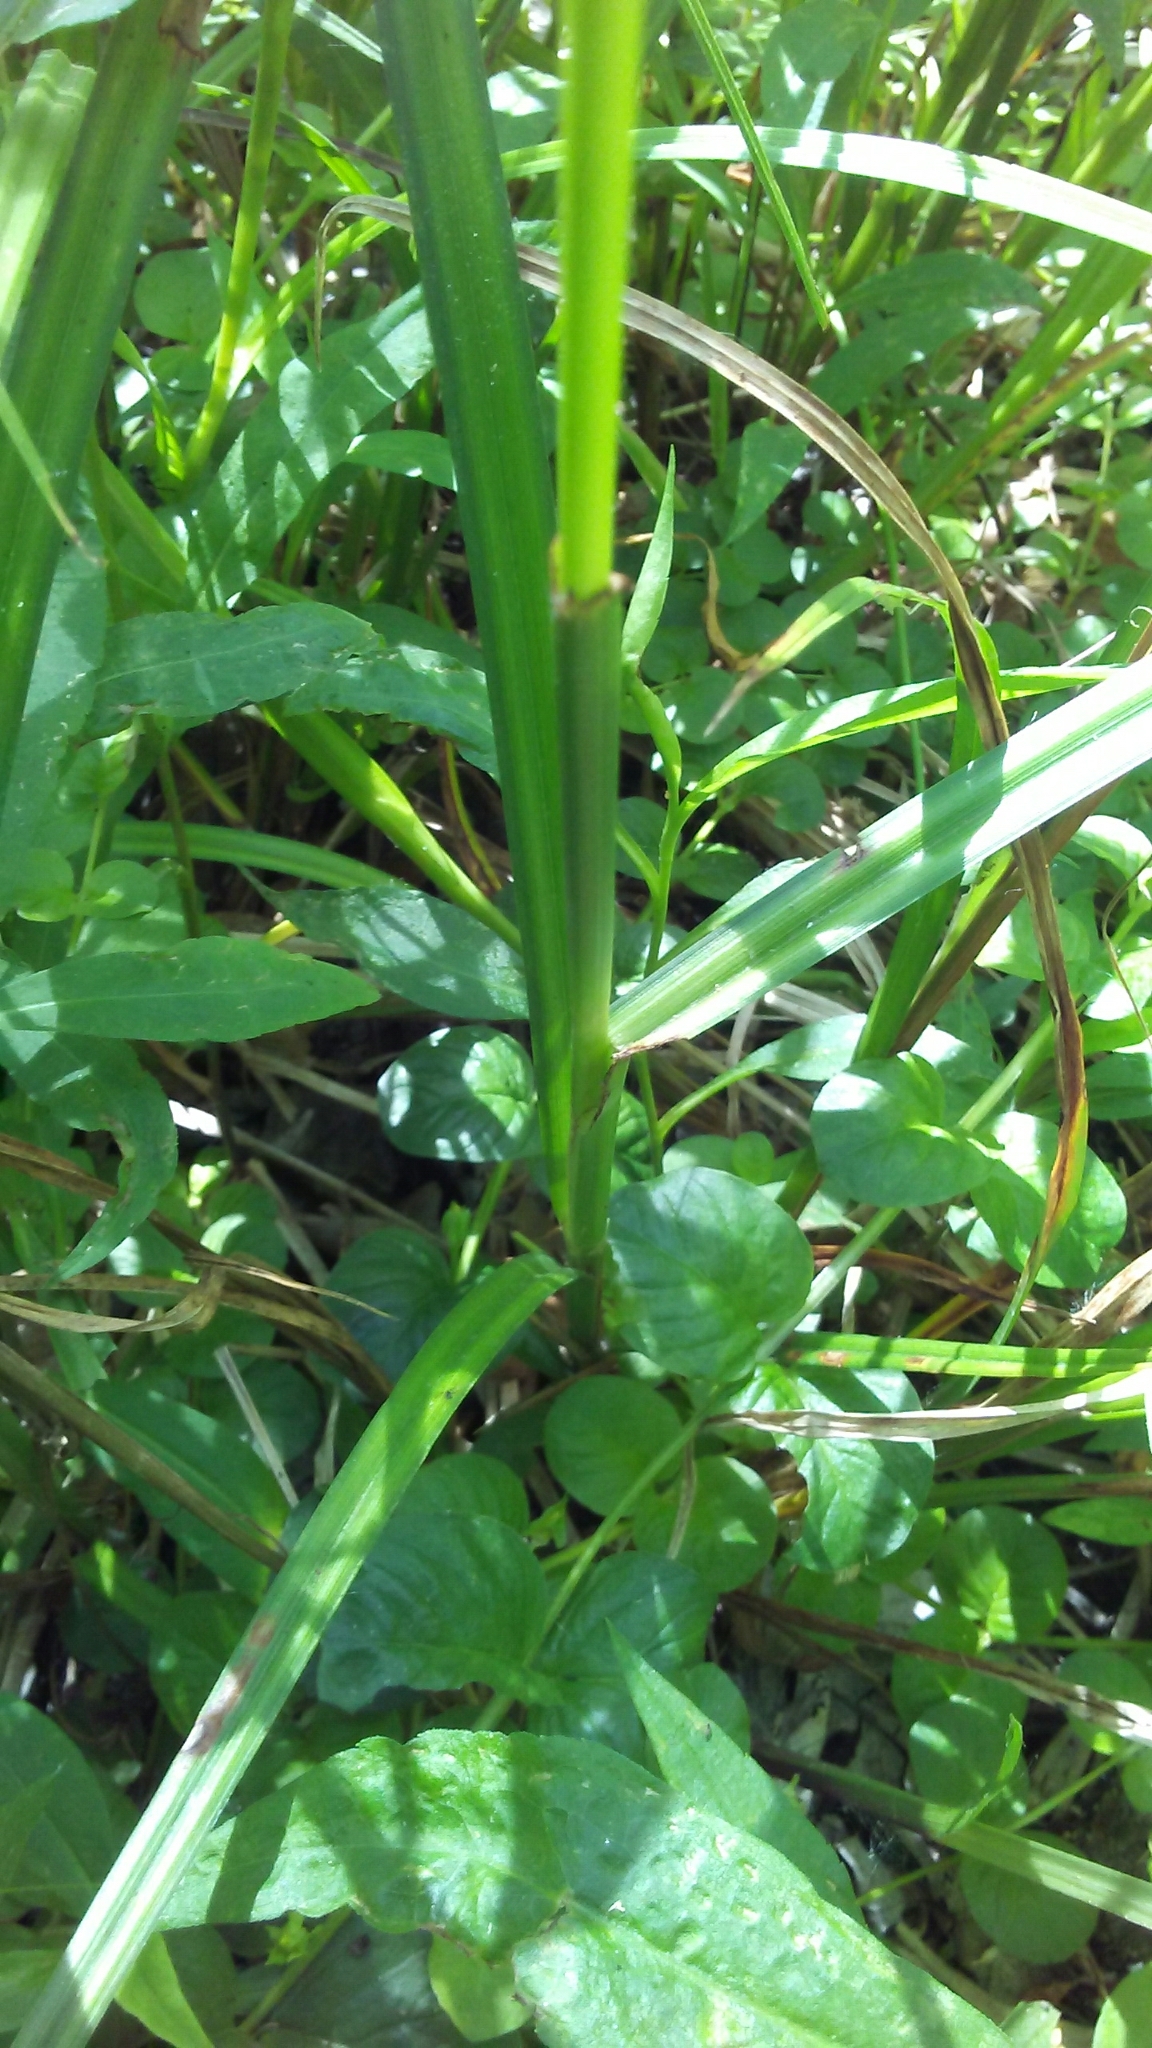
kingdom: Plantae
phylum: Tracheophyta
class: Liliopsida
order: Poales
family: Cyperaceae
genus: Carex
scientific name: Carex lupulina
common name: Hop sedge
